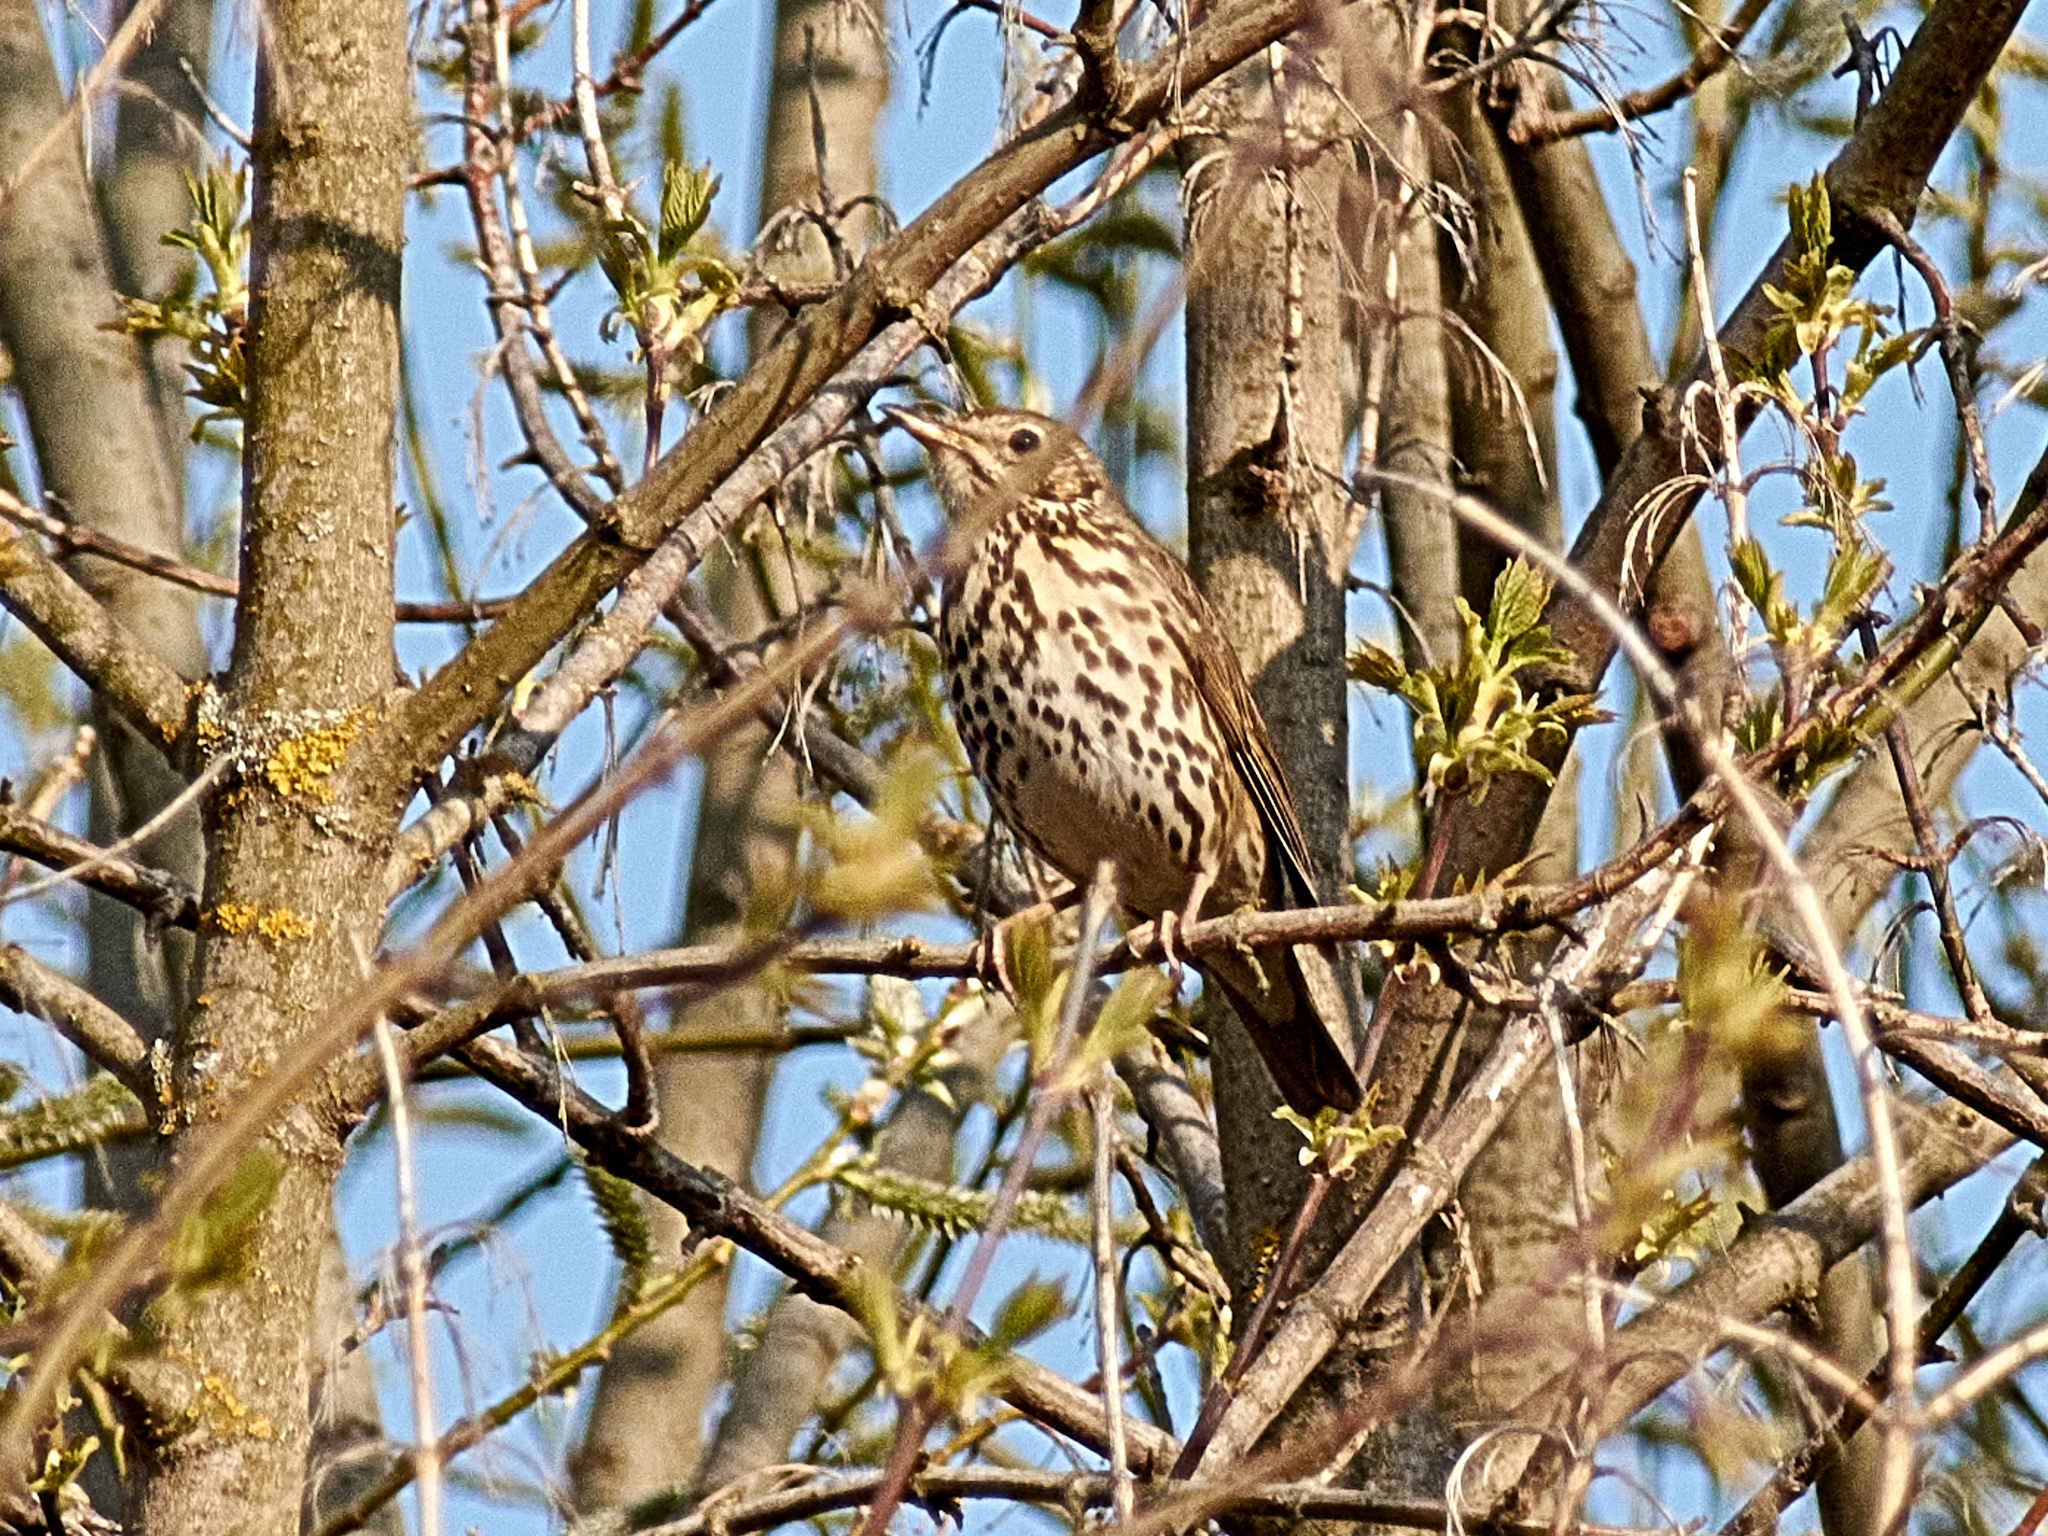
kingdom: Animalia
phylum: Chordata
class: Aves
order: Passeriformes
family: Turdidae
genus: Turdus
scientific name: Turdus philomelos
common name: Song thrush
